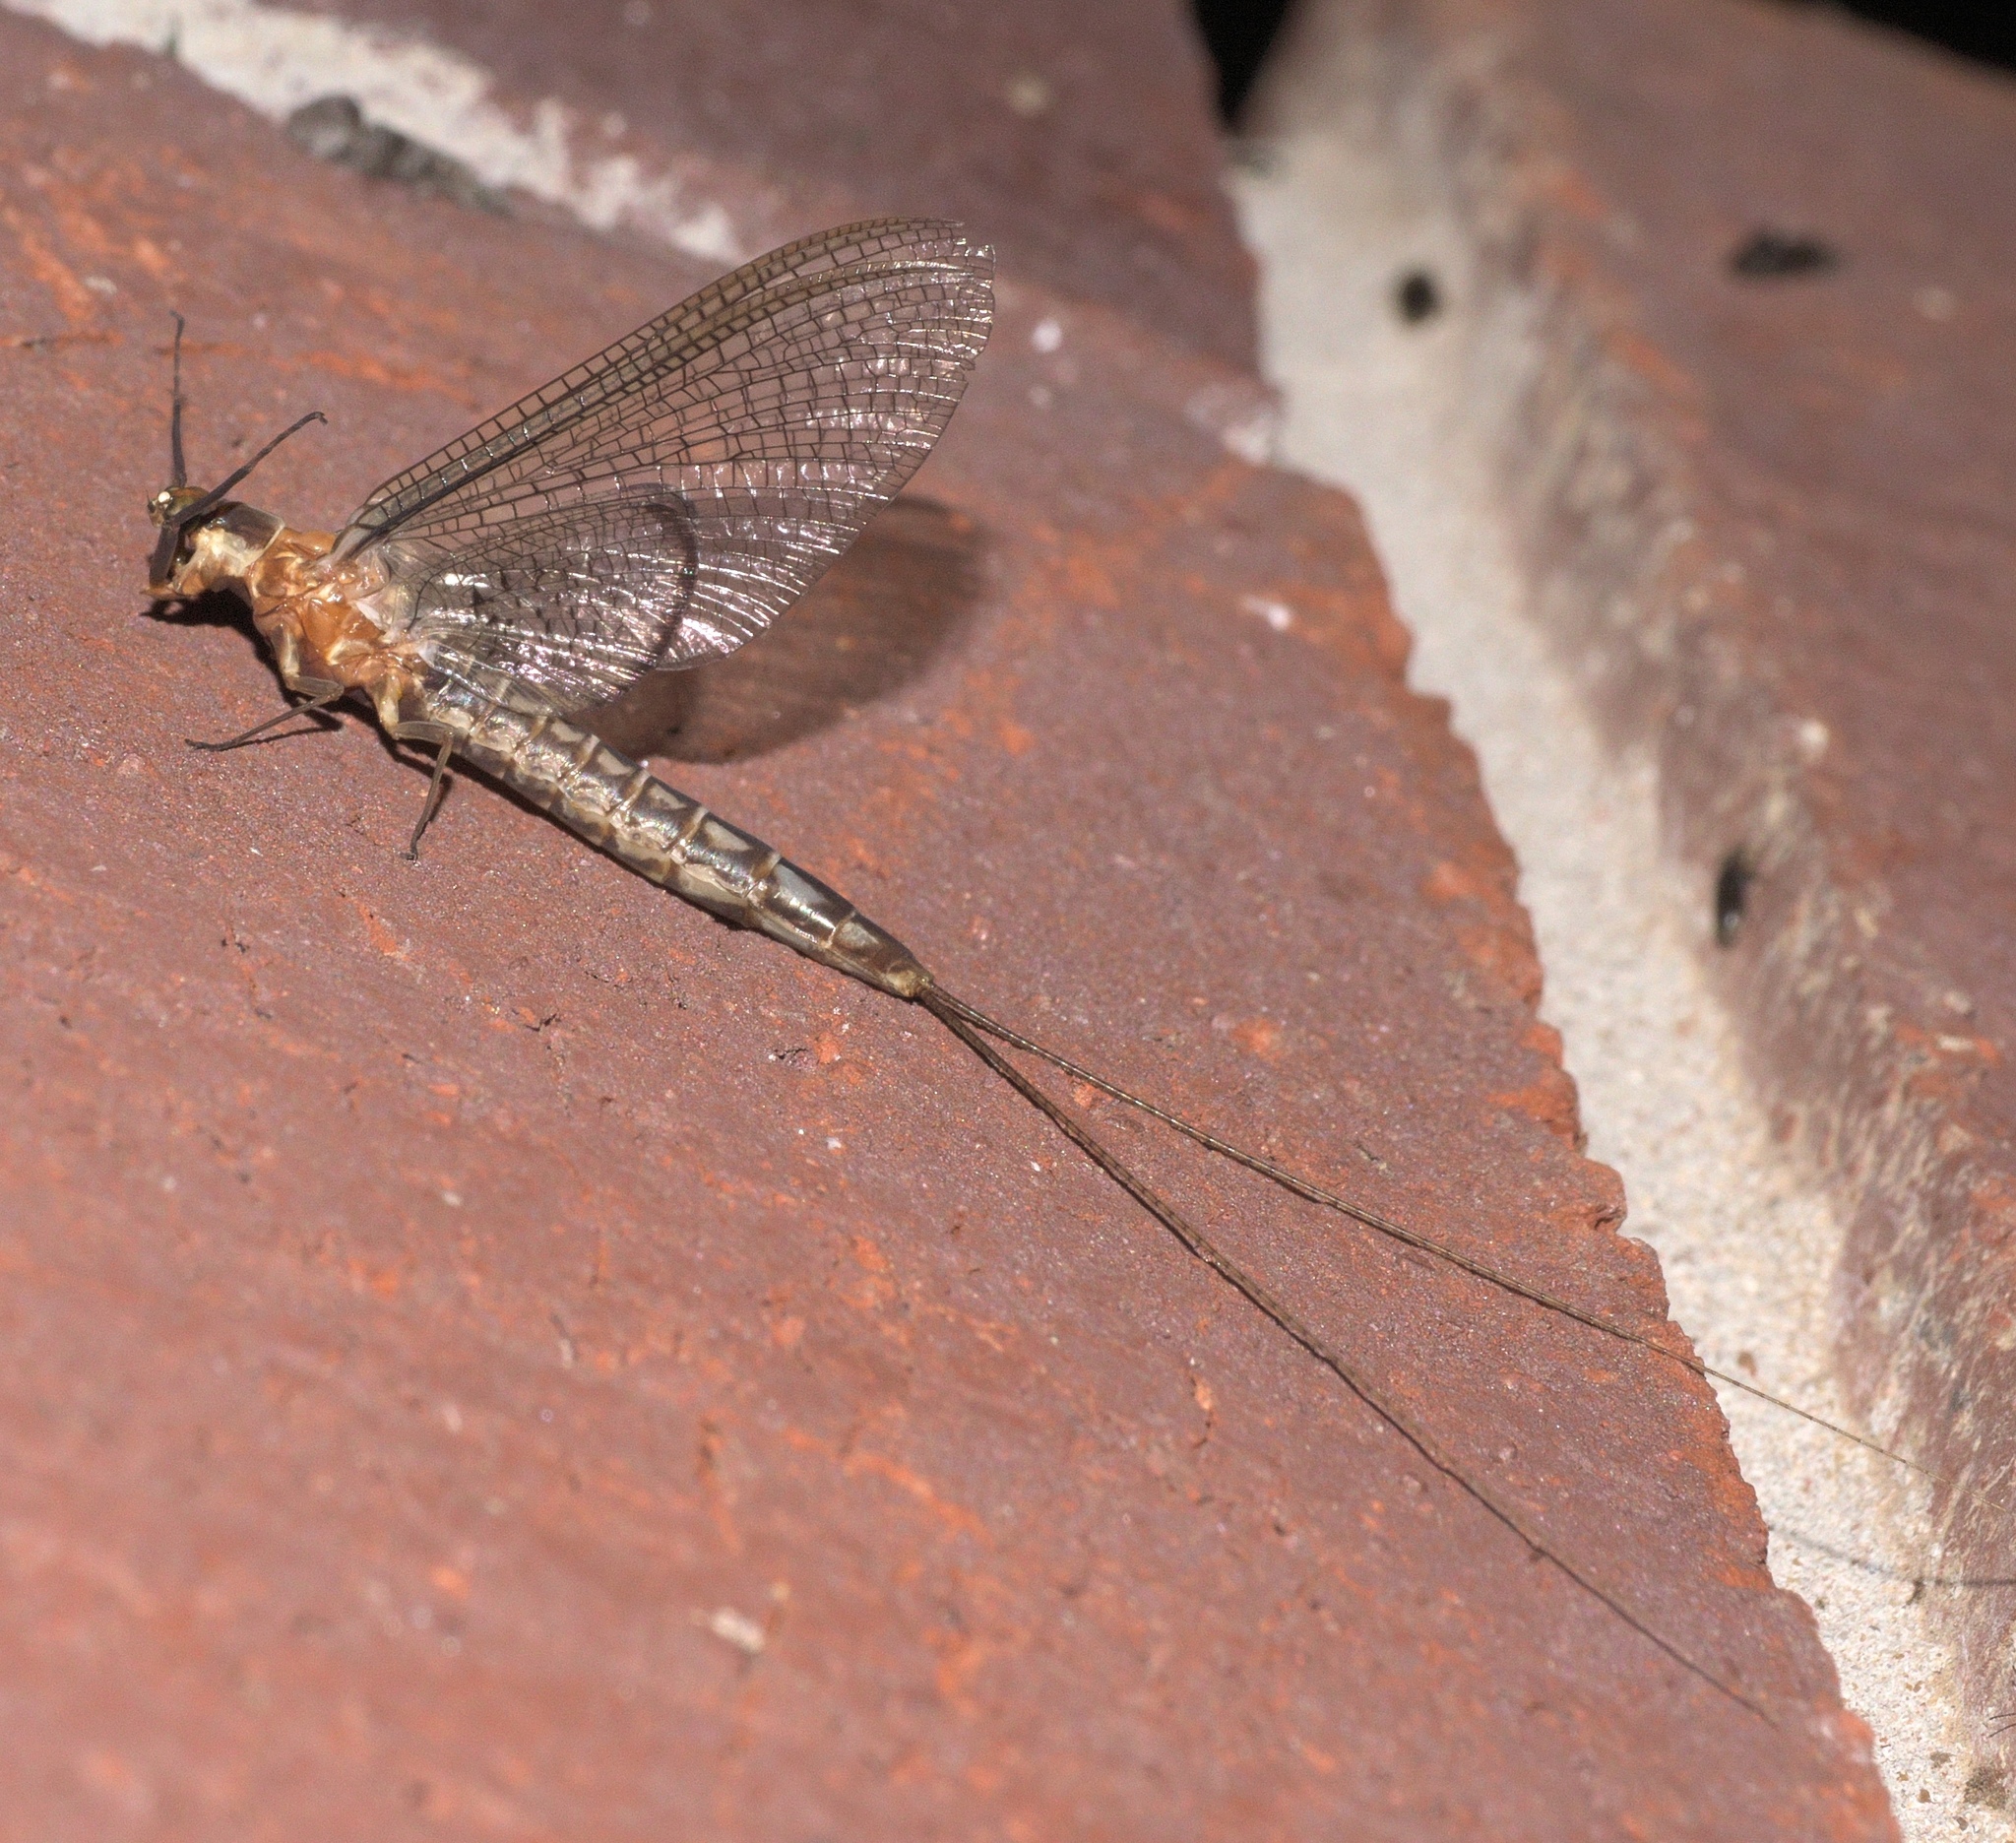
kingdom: Animalia
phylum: Arthropoda
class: Insecta
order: Ephemeroptera
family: Ephemeridae
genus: Hexagenia
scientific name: Hexagenia bilineata
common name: Emergent mayfly
